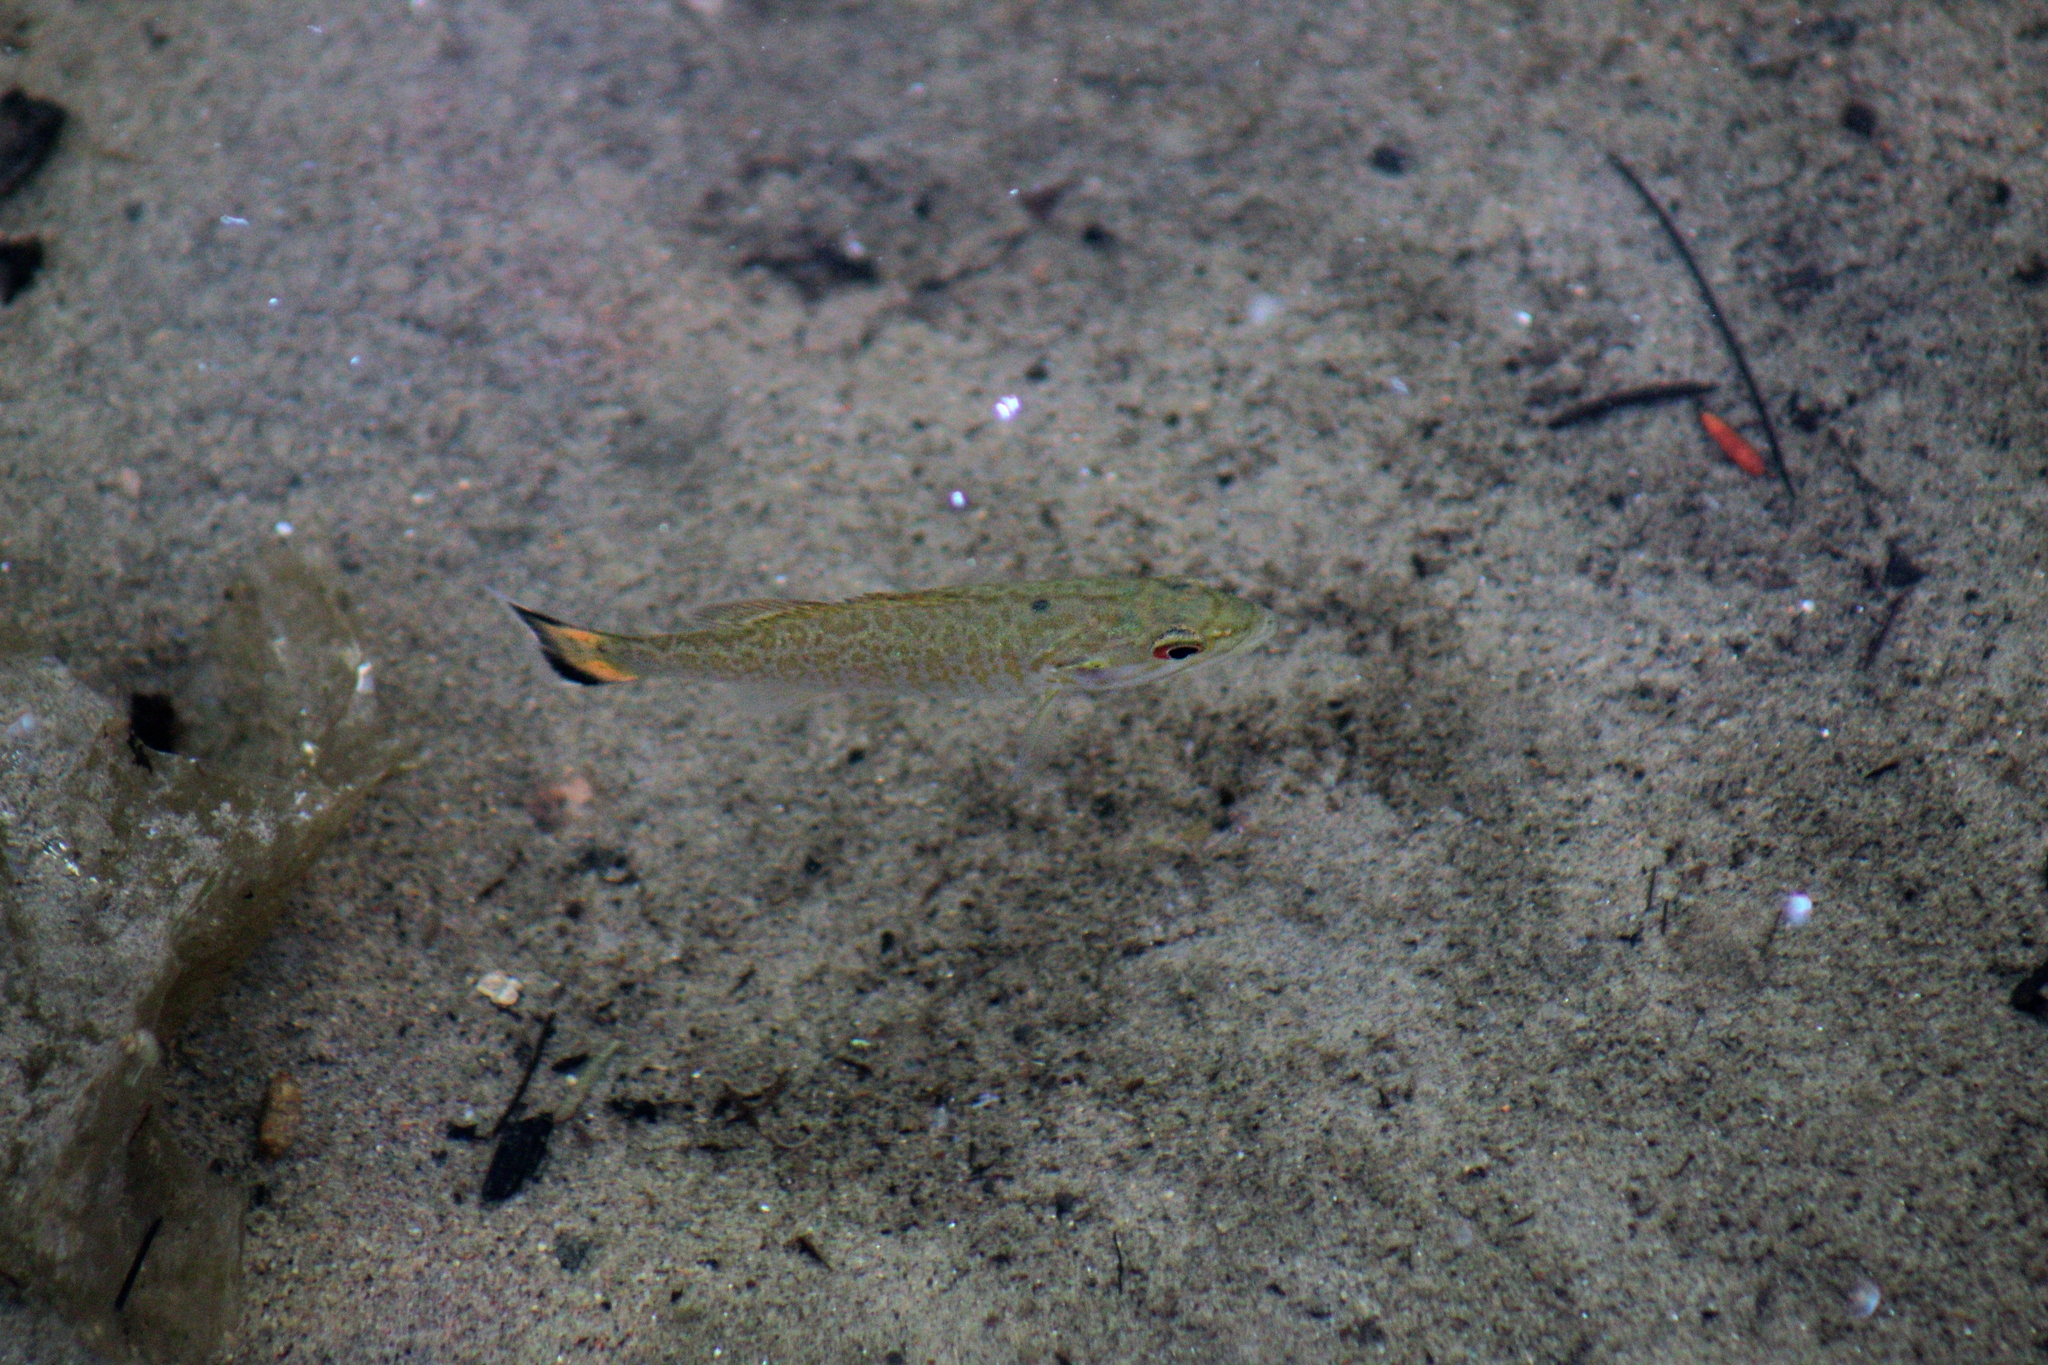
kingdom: Animalia
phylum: Chordata
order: Perciformes
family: Centrarchidae
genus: Micropterus
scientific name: Micropterus dolomieu
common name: Smallmouth bass
